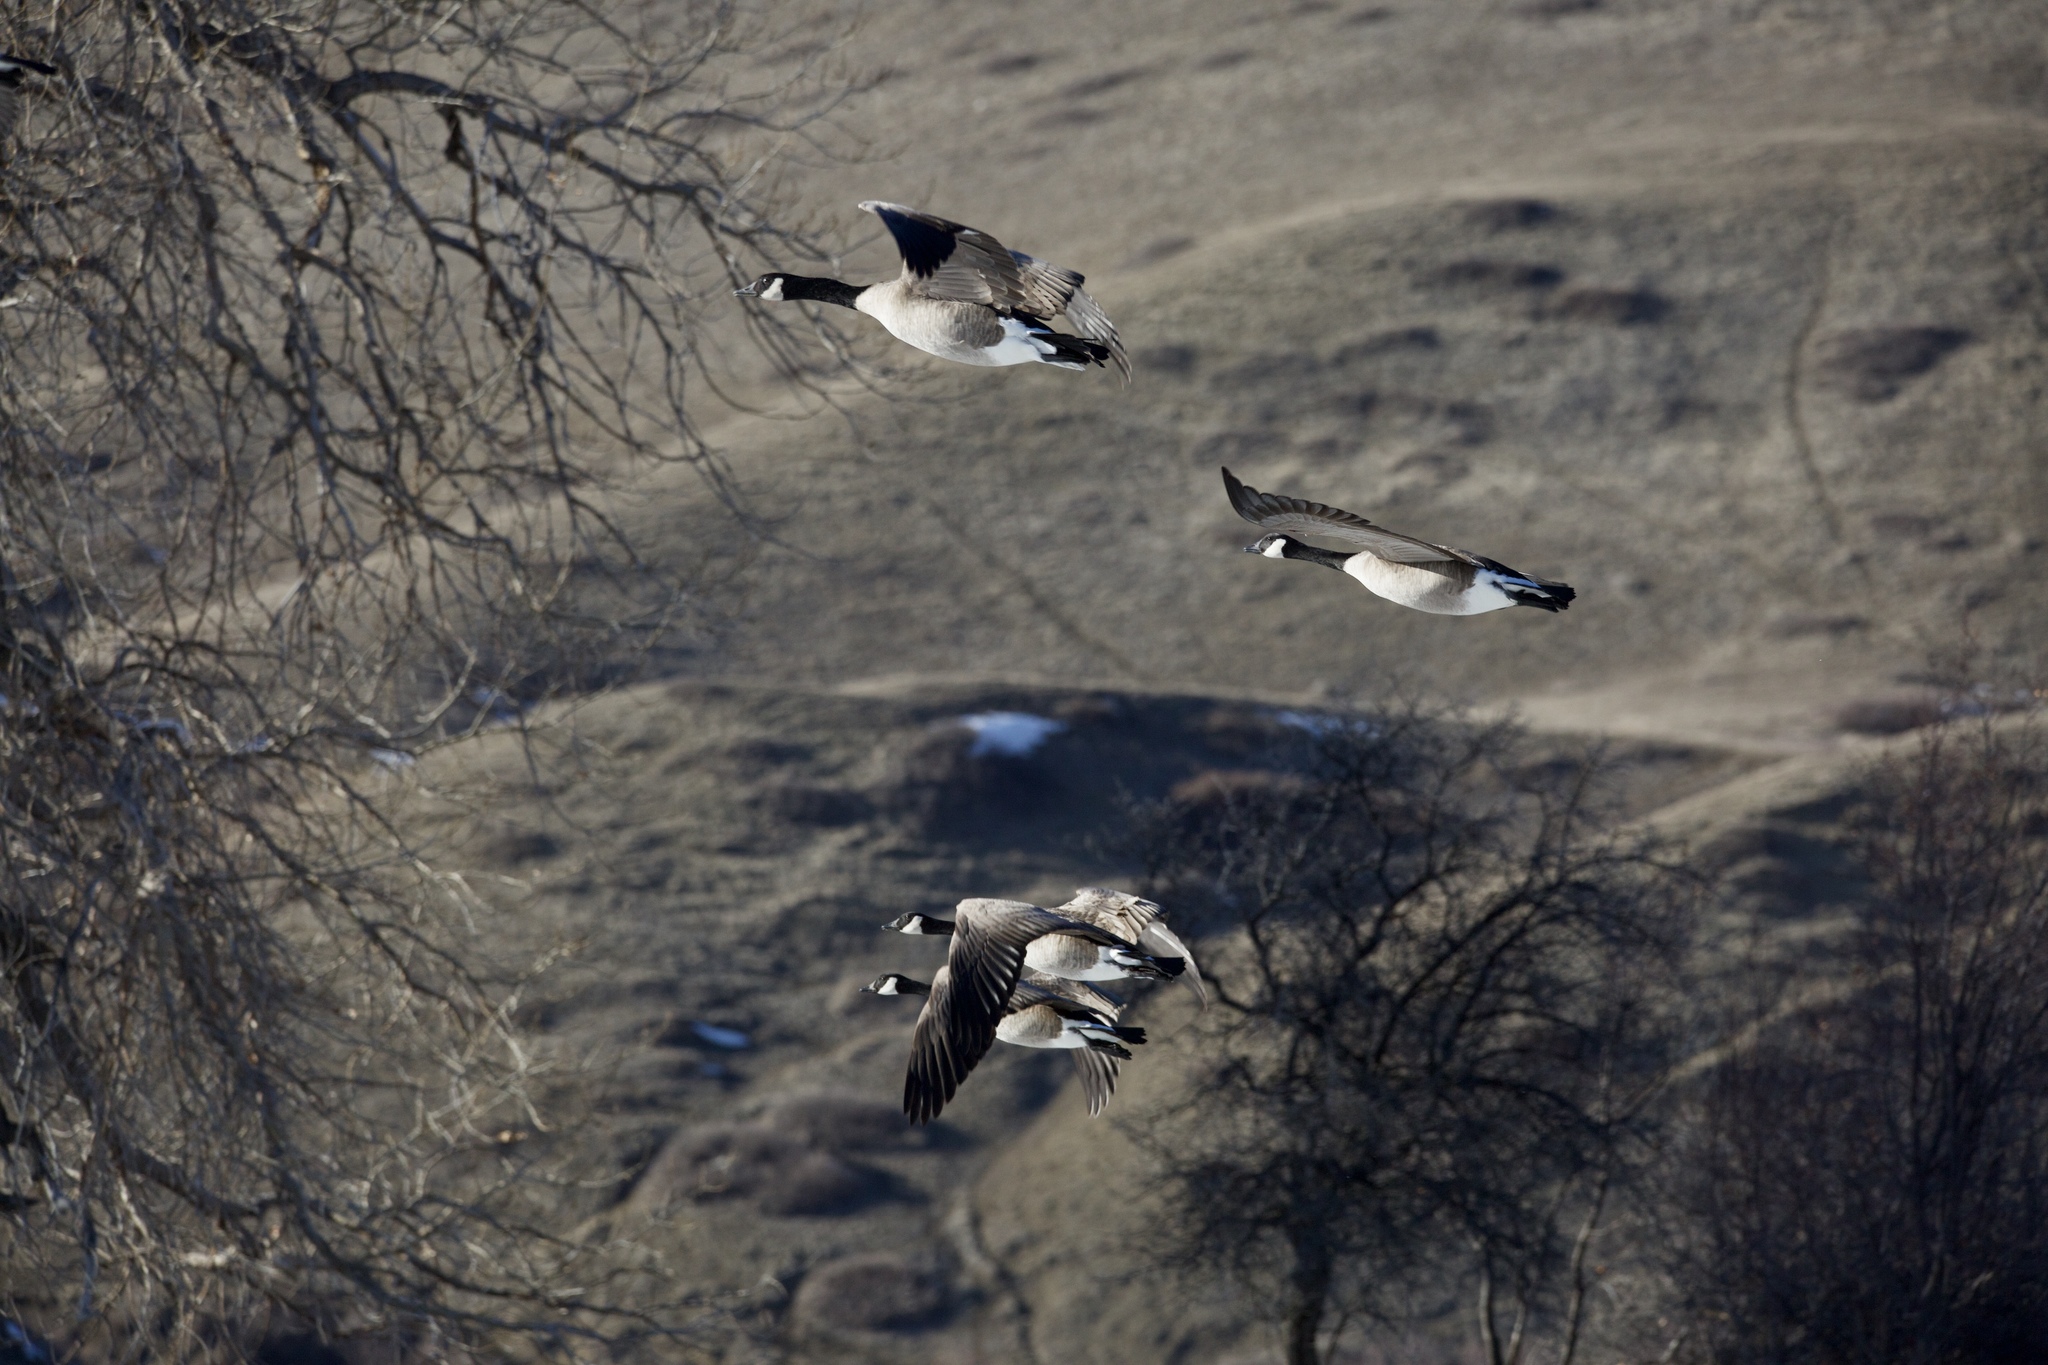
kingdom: Animalia
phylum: Chordata
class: Aves
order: Anseriformes
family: Anatidae
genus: Branta
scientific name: Branta canadensis
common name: Canada goose
